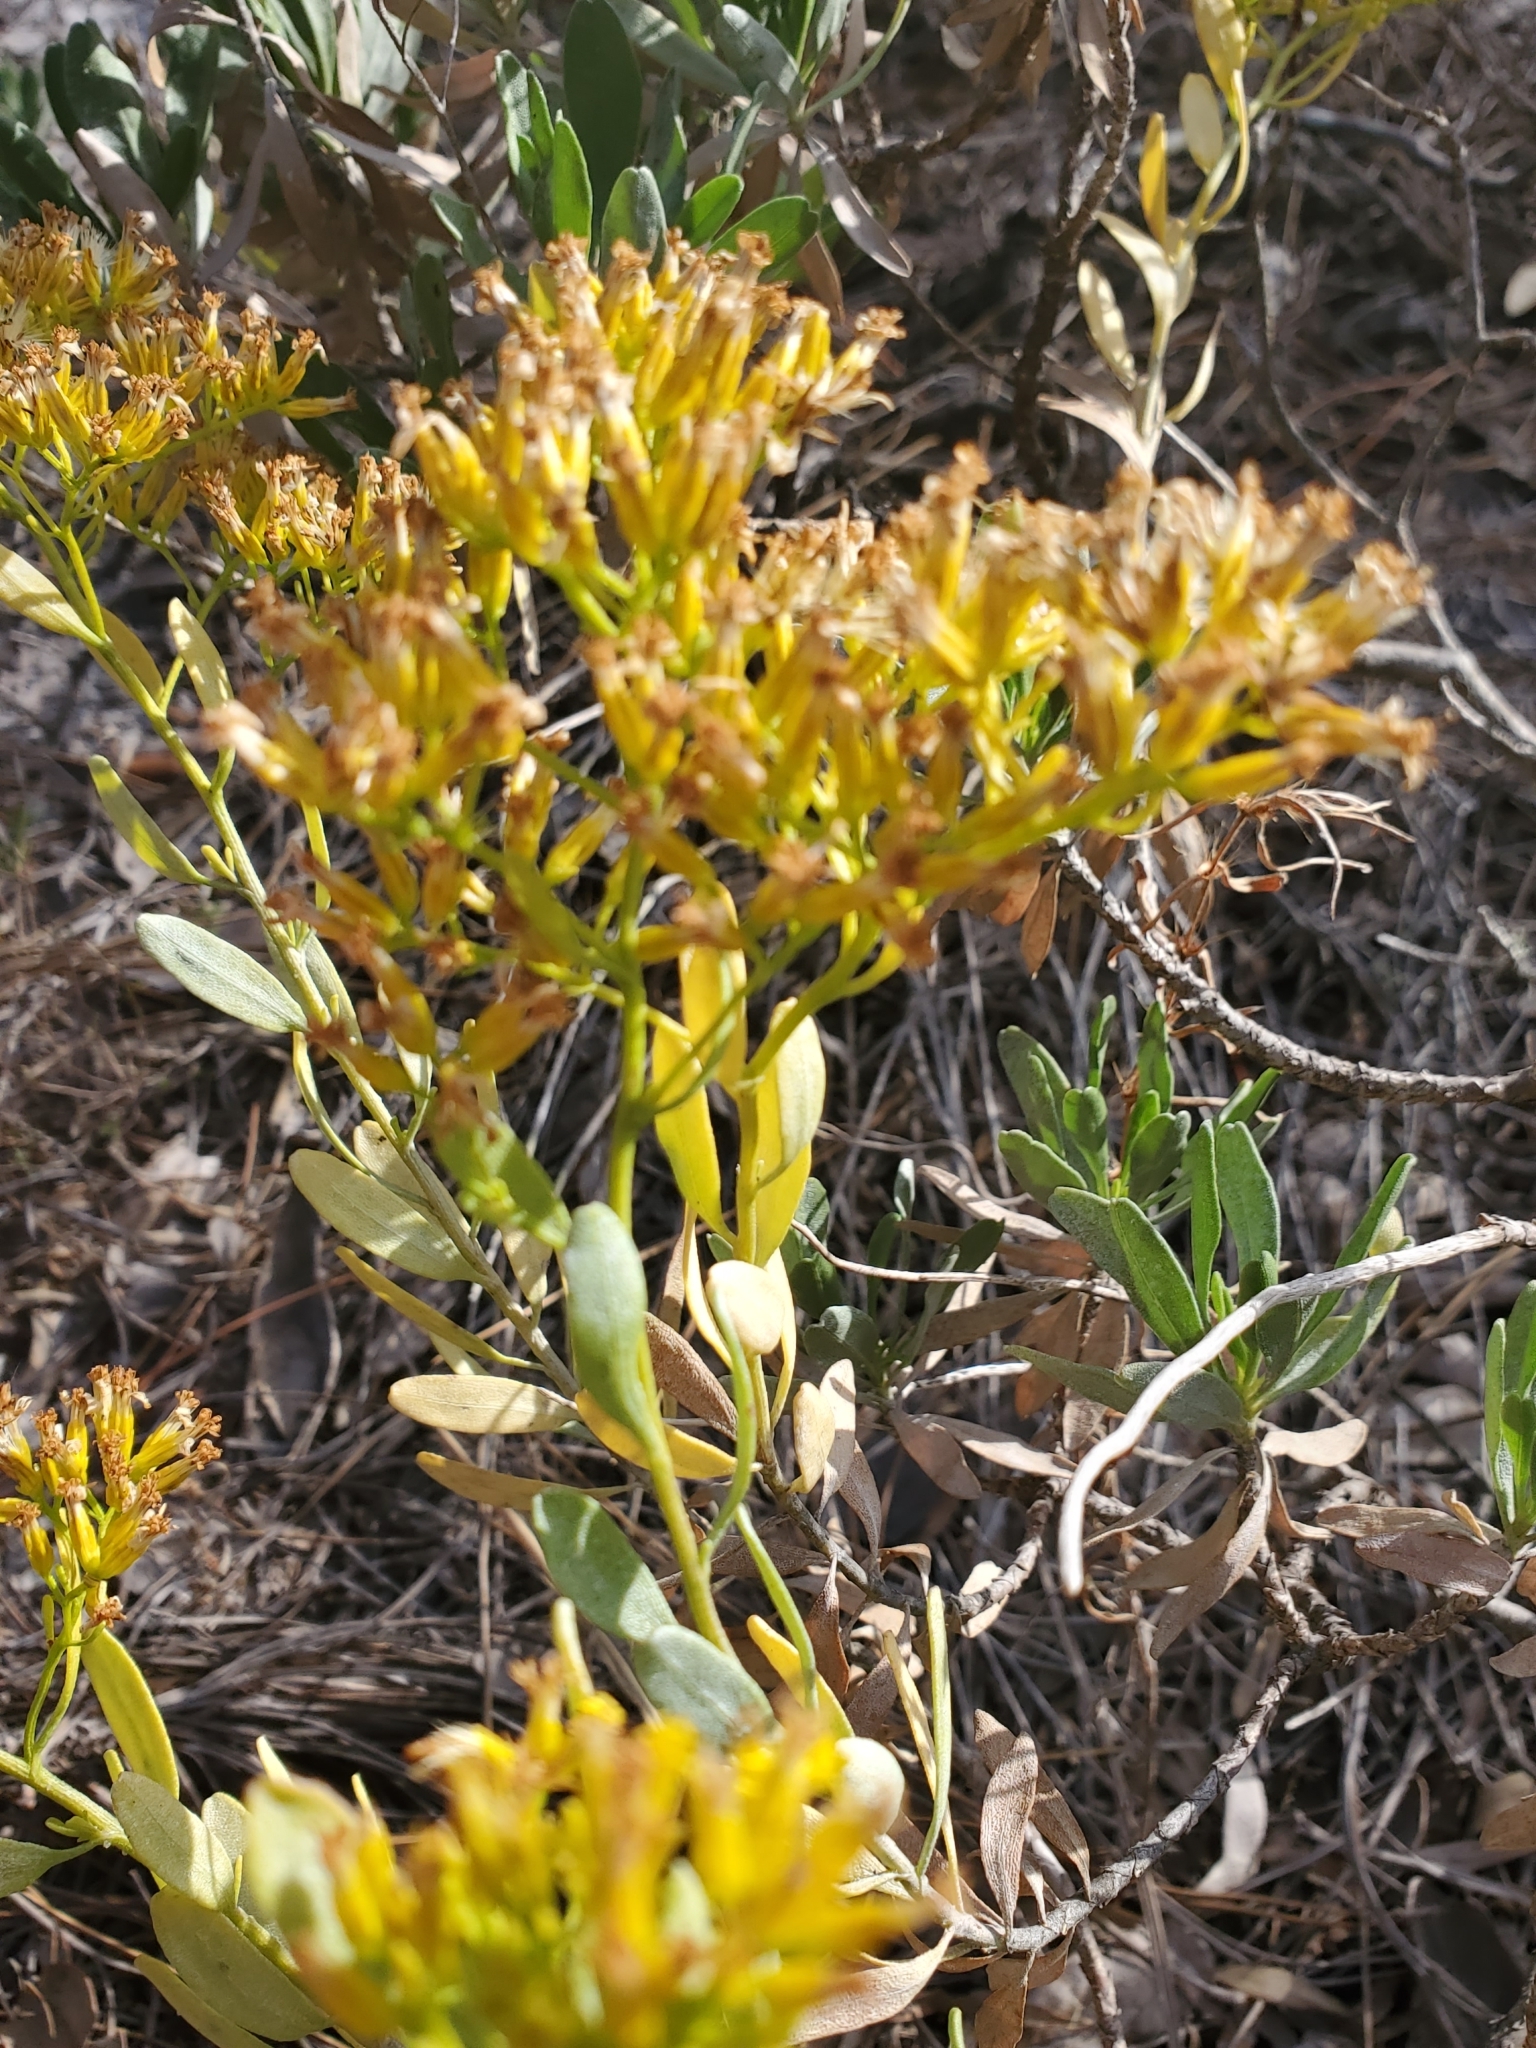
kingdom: Plantae
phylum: Tracheophyta
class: Magnoliopsida
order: Asterales
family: Asteraceae
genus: Chrysoma
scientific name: Chrysoma pauciflosculosa
